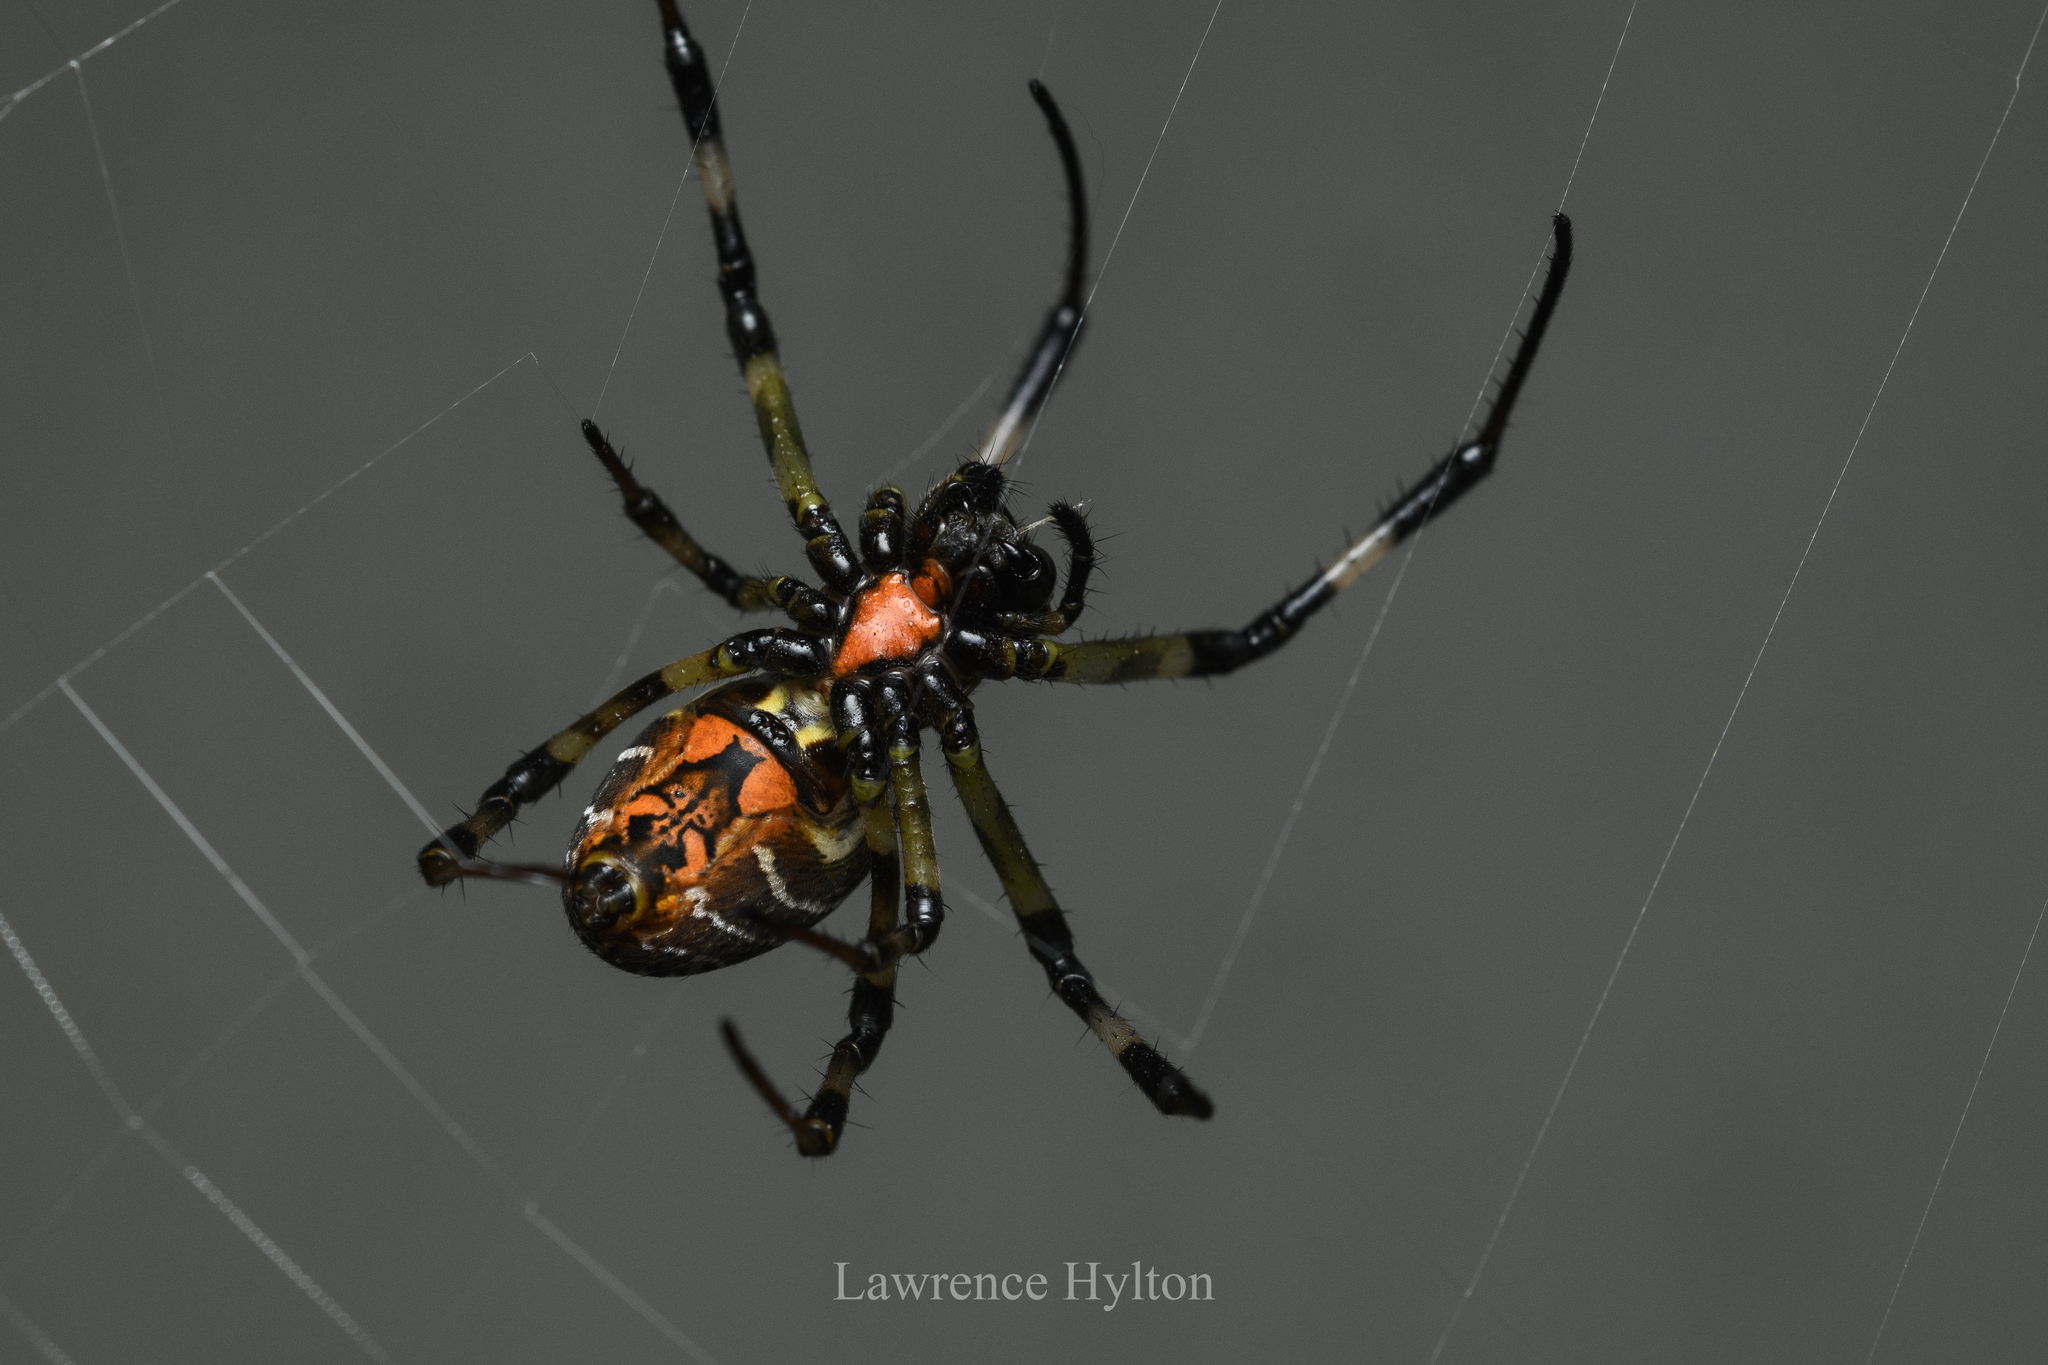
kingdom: Animalia
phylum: Arthropoda
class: Arachnida
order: Araneae
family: Araneidae
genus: Nephilengys
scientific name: Nephilengys malabarensis
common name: Asian hermit spider
